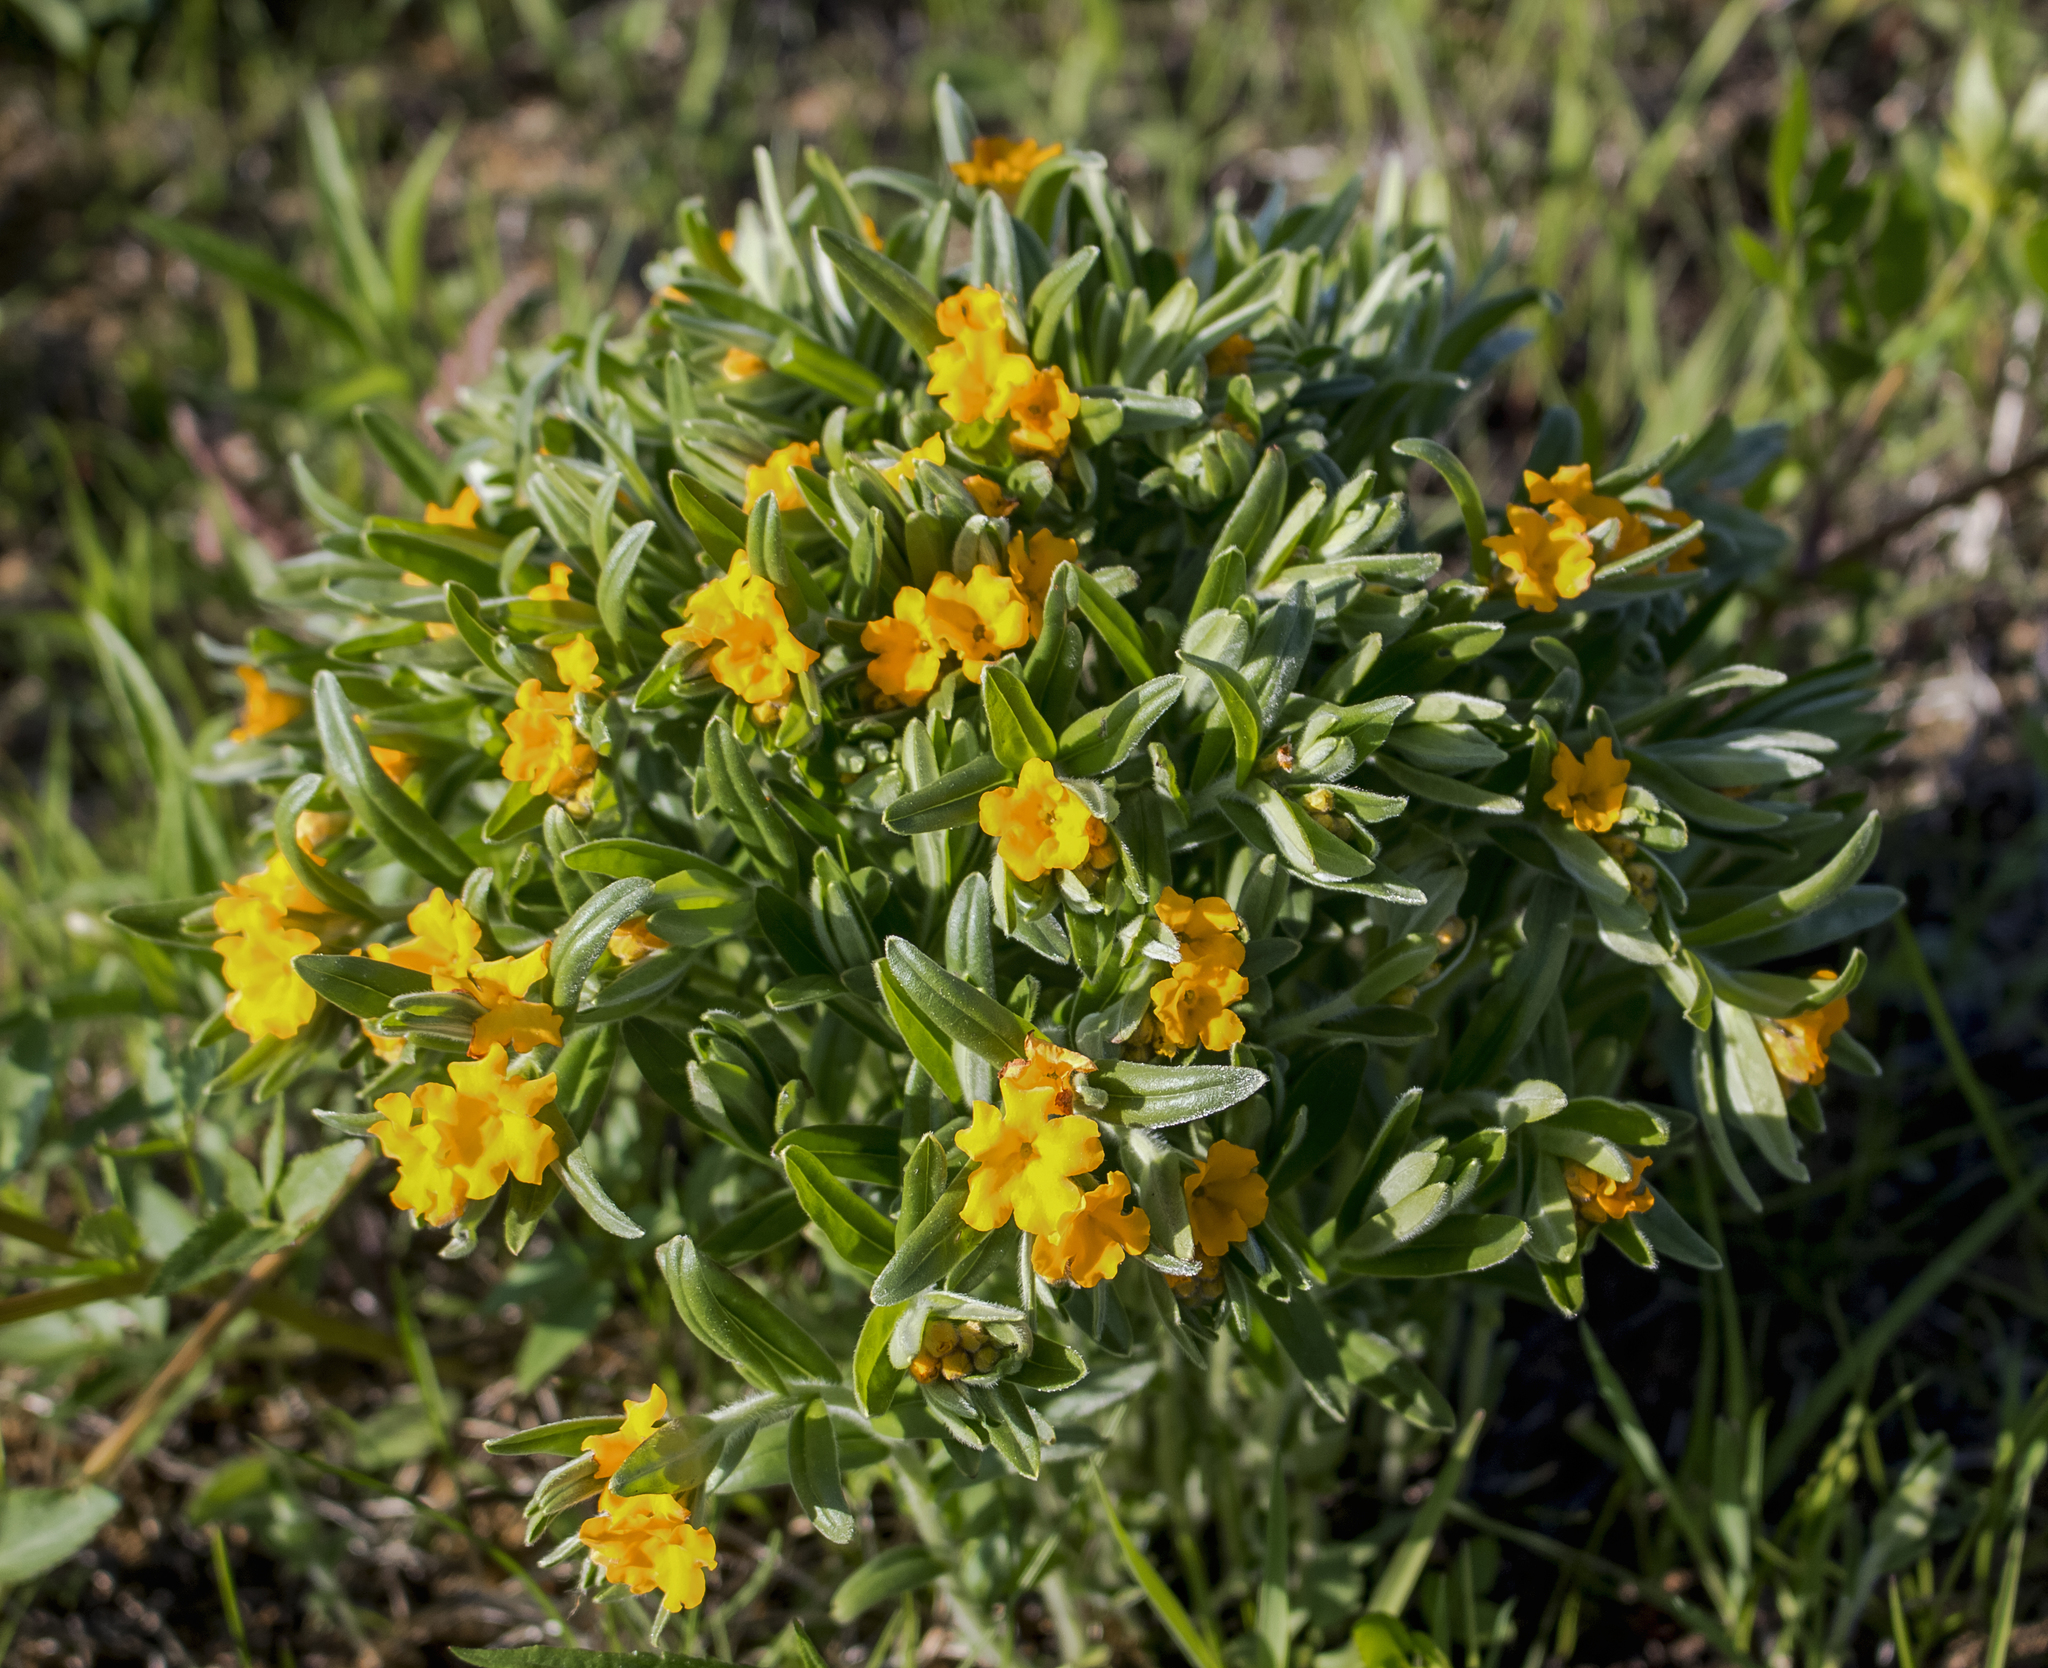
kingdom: Plantae
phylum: Tracheophyta
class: Magnoliopsida
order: Boraginales
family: Boraginaceae
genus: Lithospermum
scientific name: Lithospermum canescens
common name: Hoary puccoon
